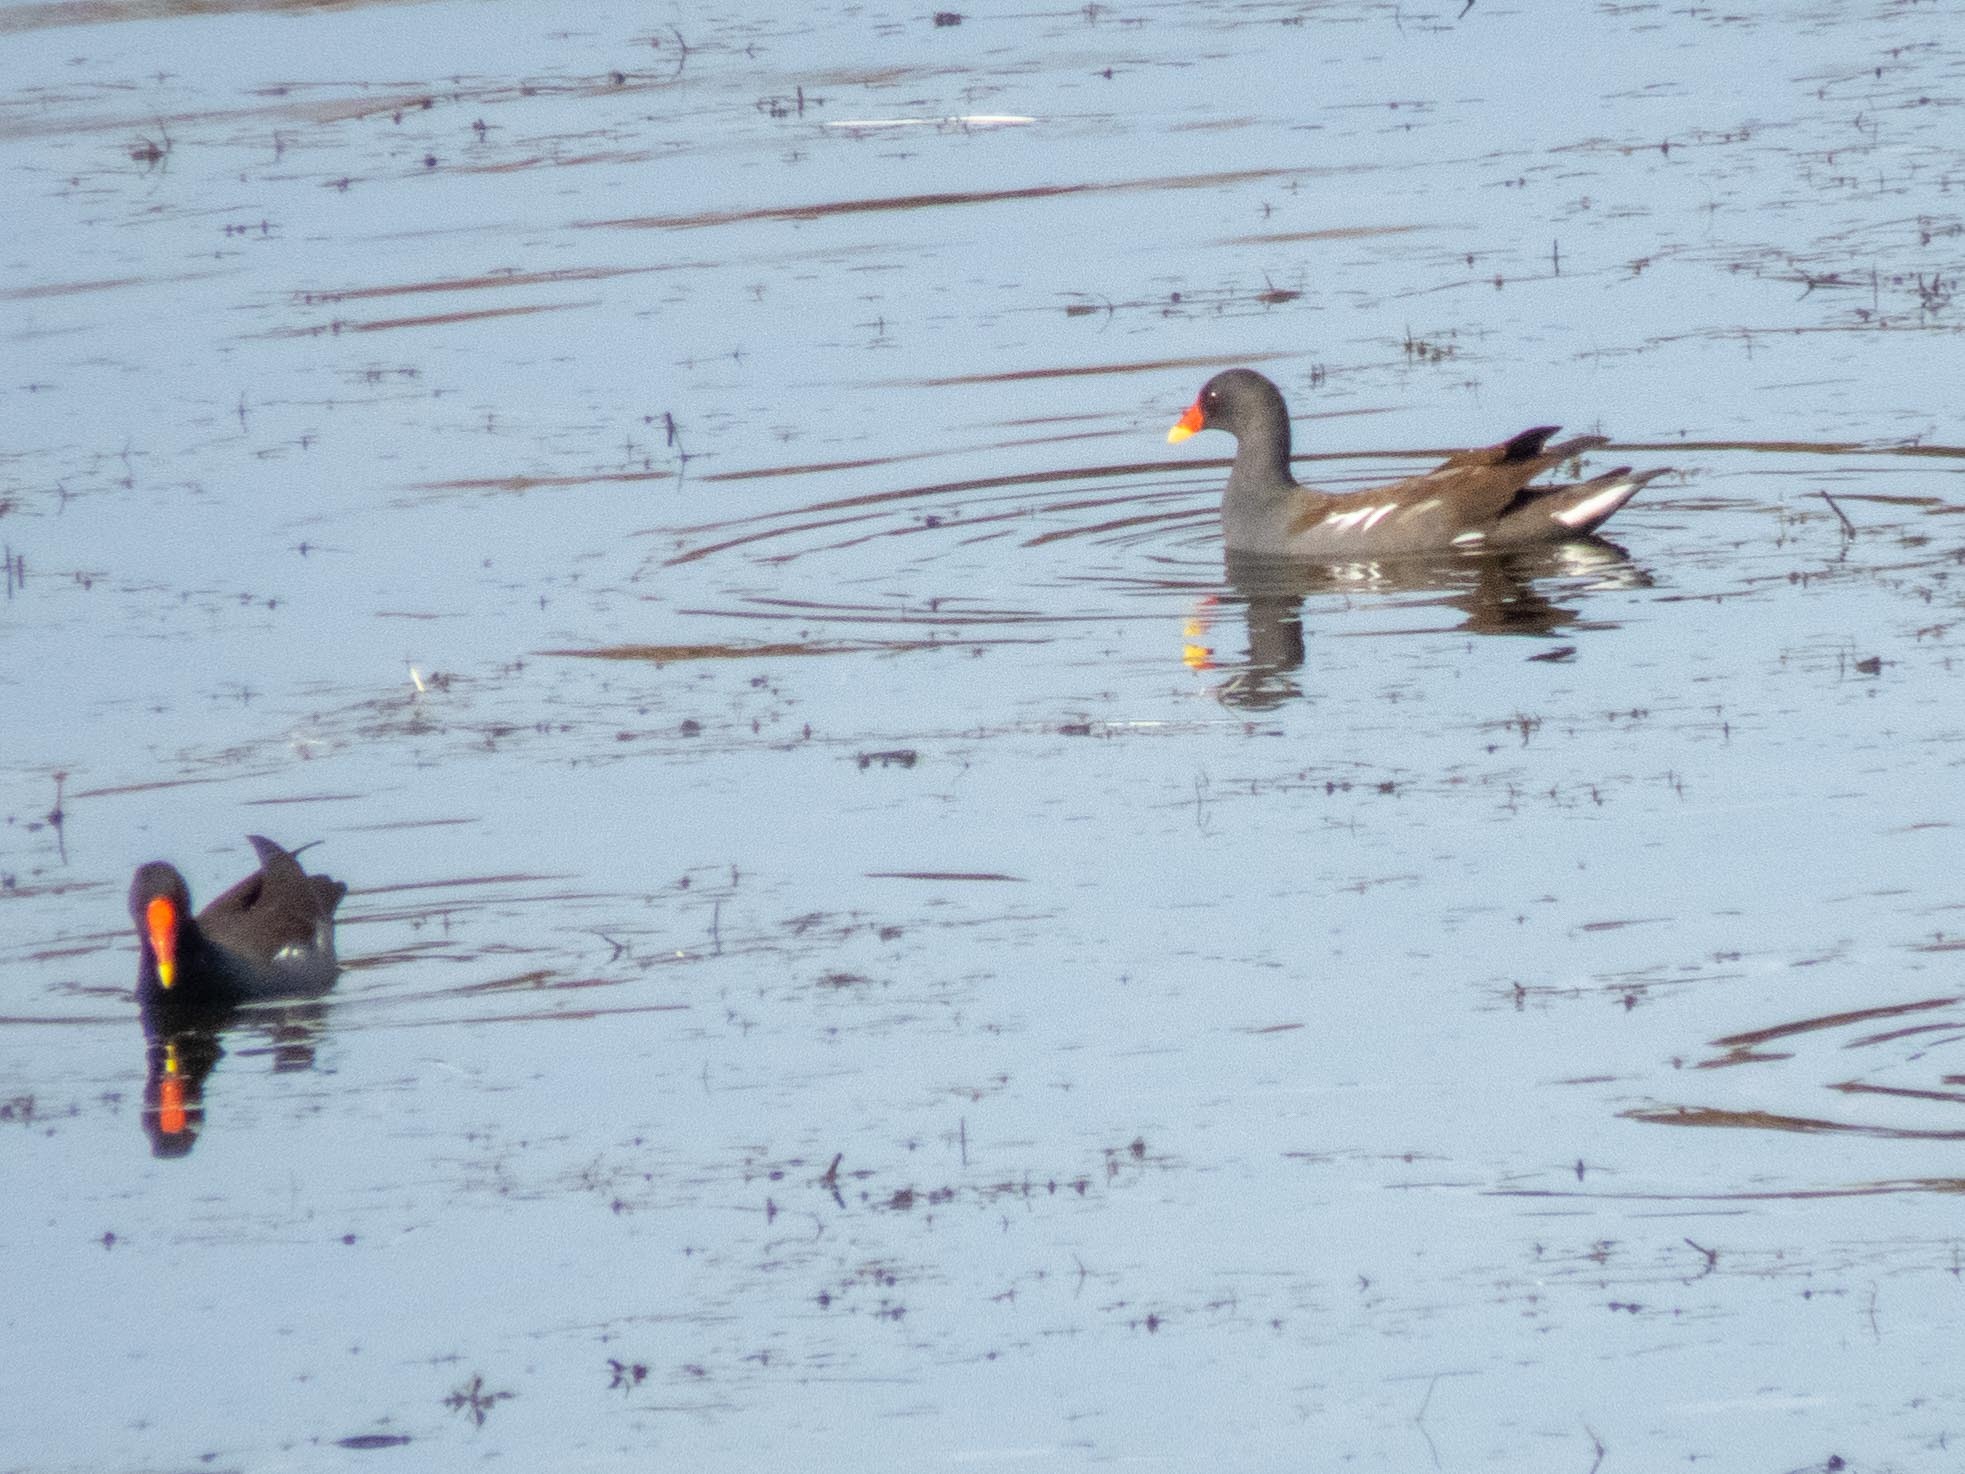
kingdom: Animalia
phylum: Chordata
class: Aves
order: Gruiformes
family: Rallidae
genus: Gallinula
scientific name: Gallinula chloropus
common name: Common moorhen
